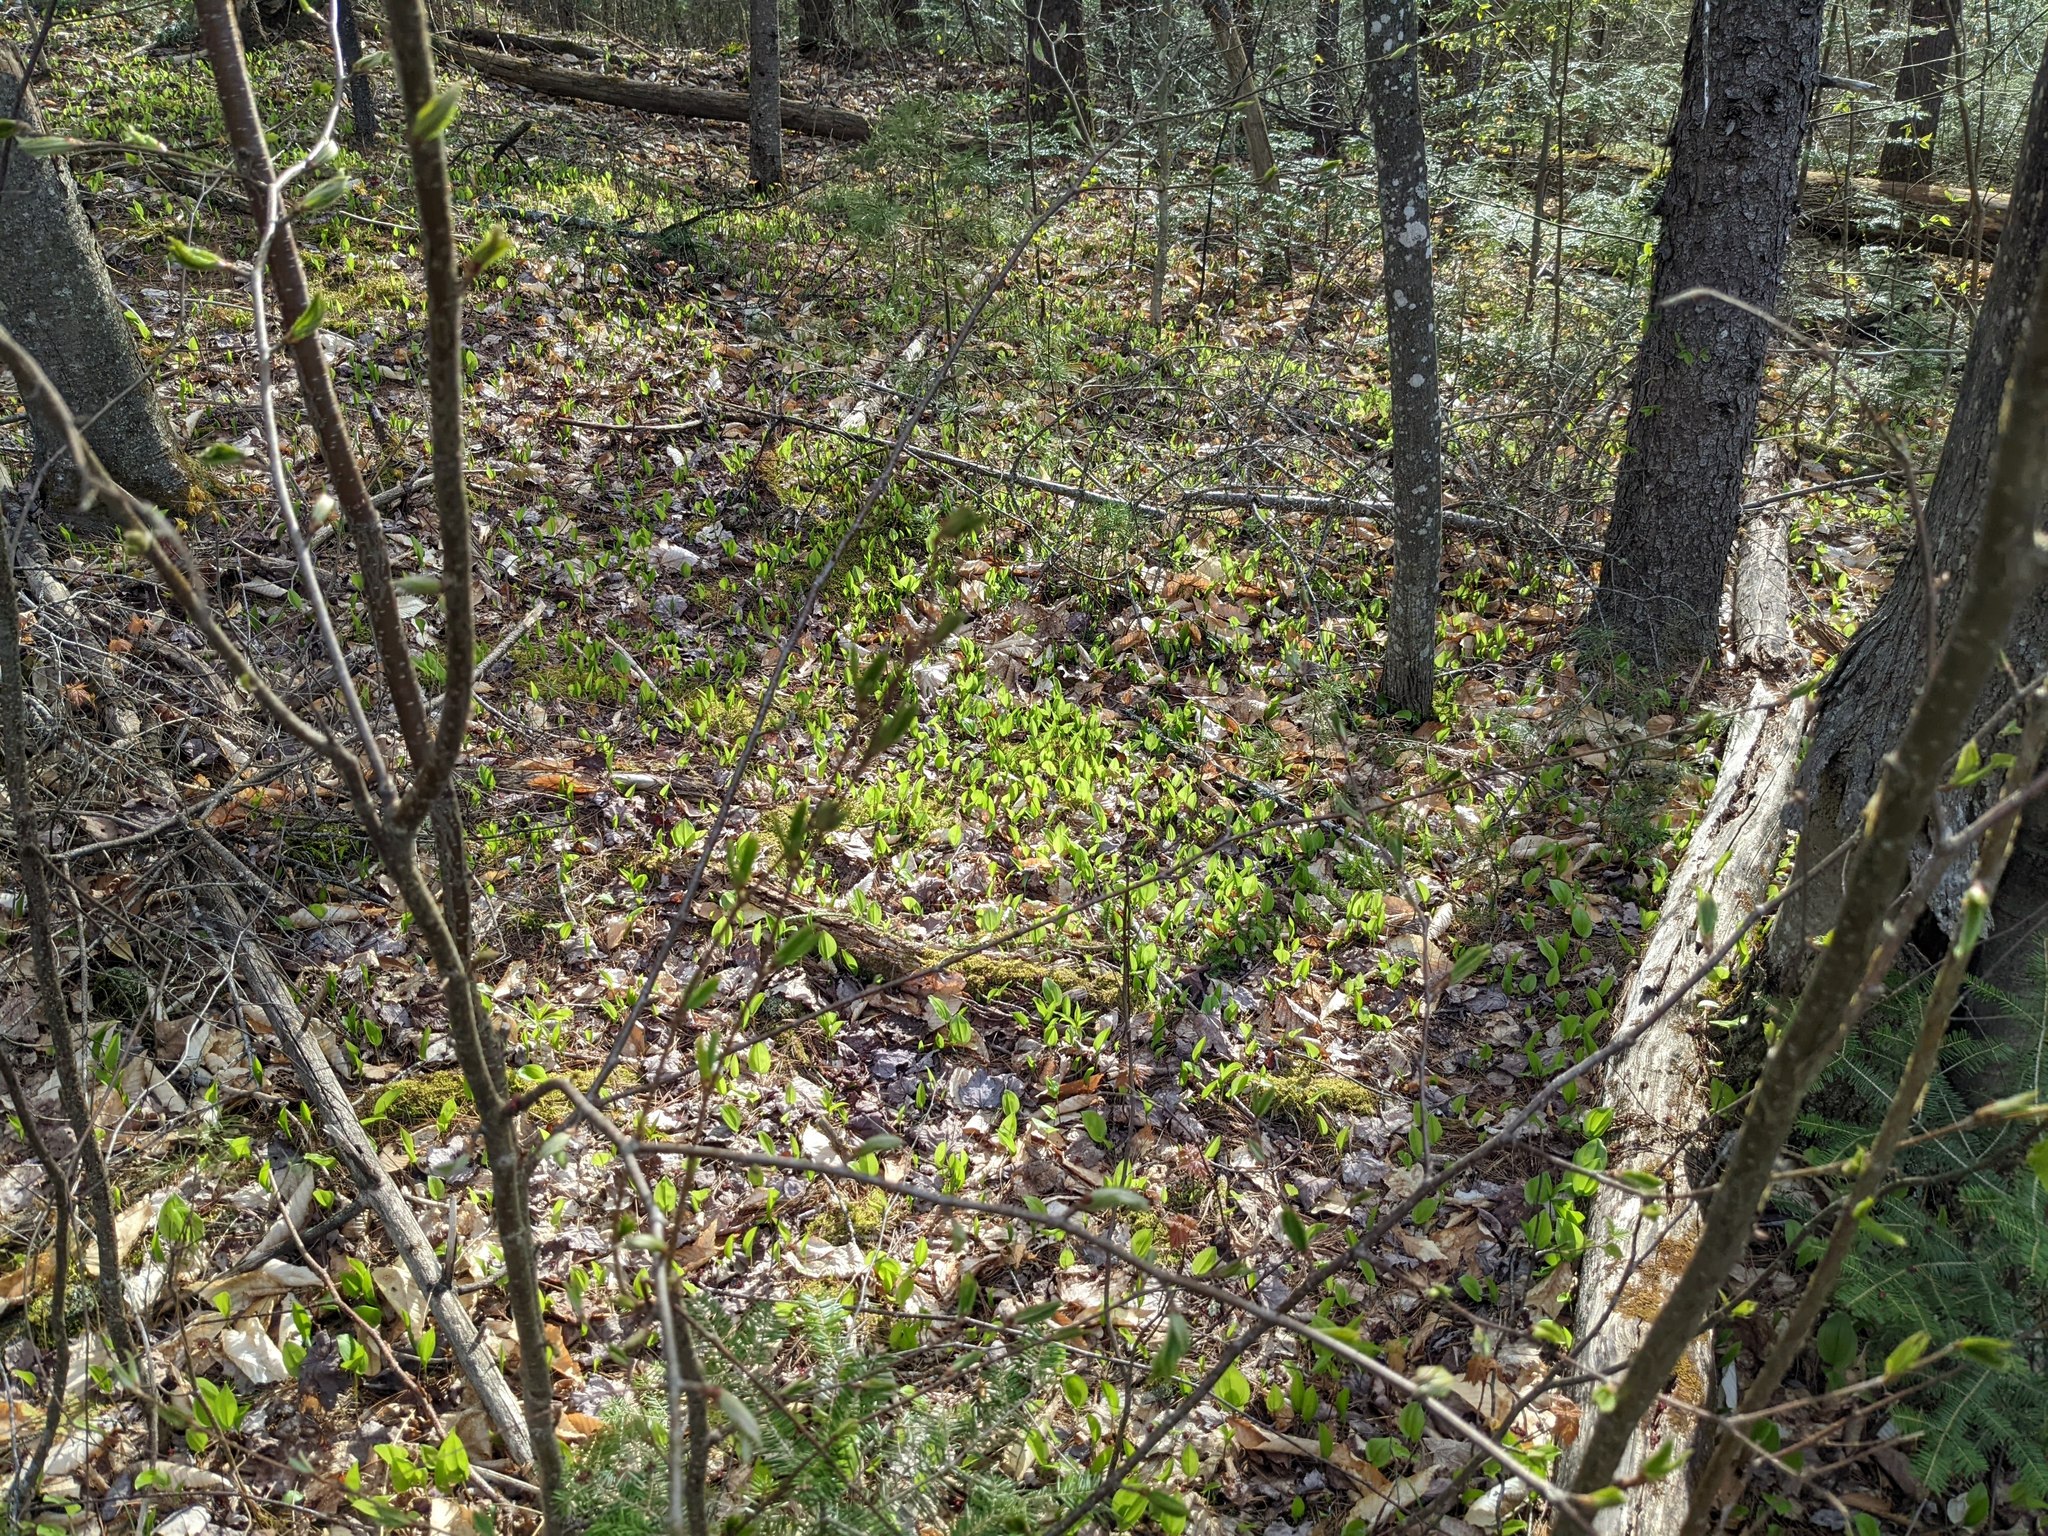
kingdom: Plantae
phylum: Tracheophyta
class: Liliopsida
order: Asparagales
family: Asparagaceae
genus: Maianthemum
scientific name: Maianthemum canadense
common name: False lily-of-the-valley
